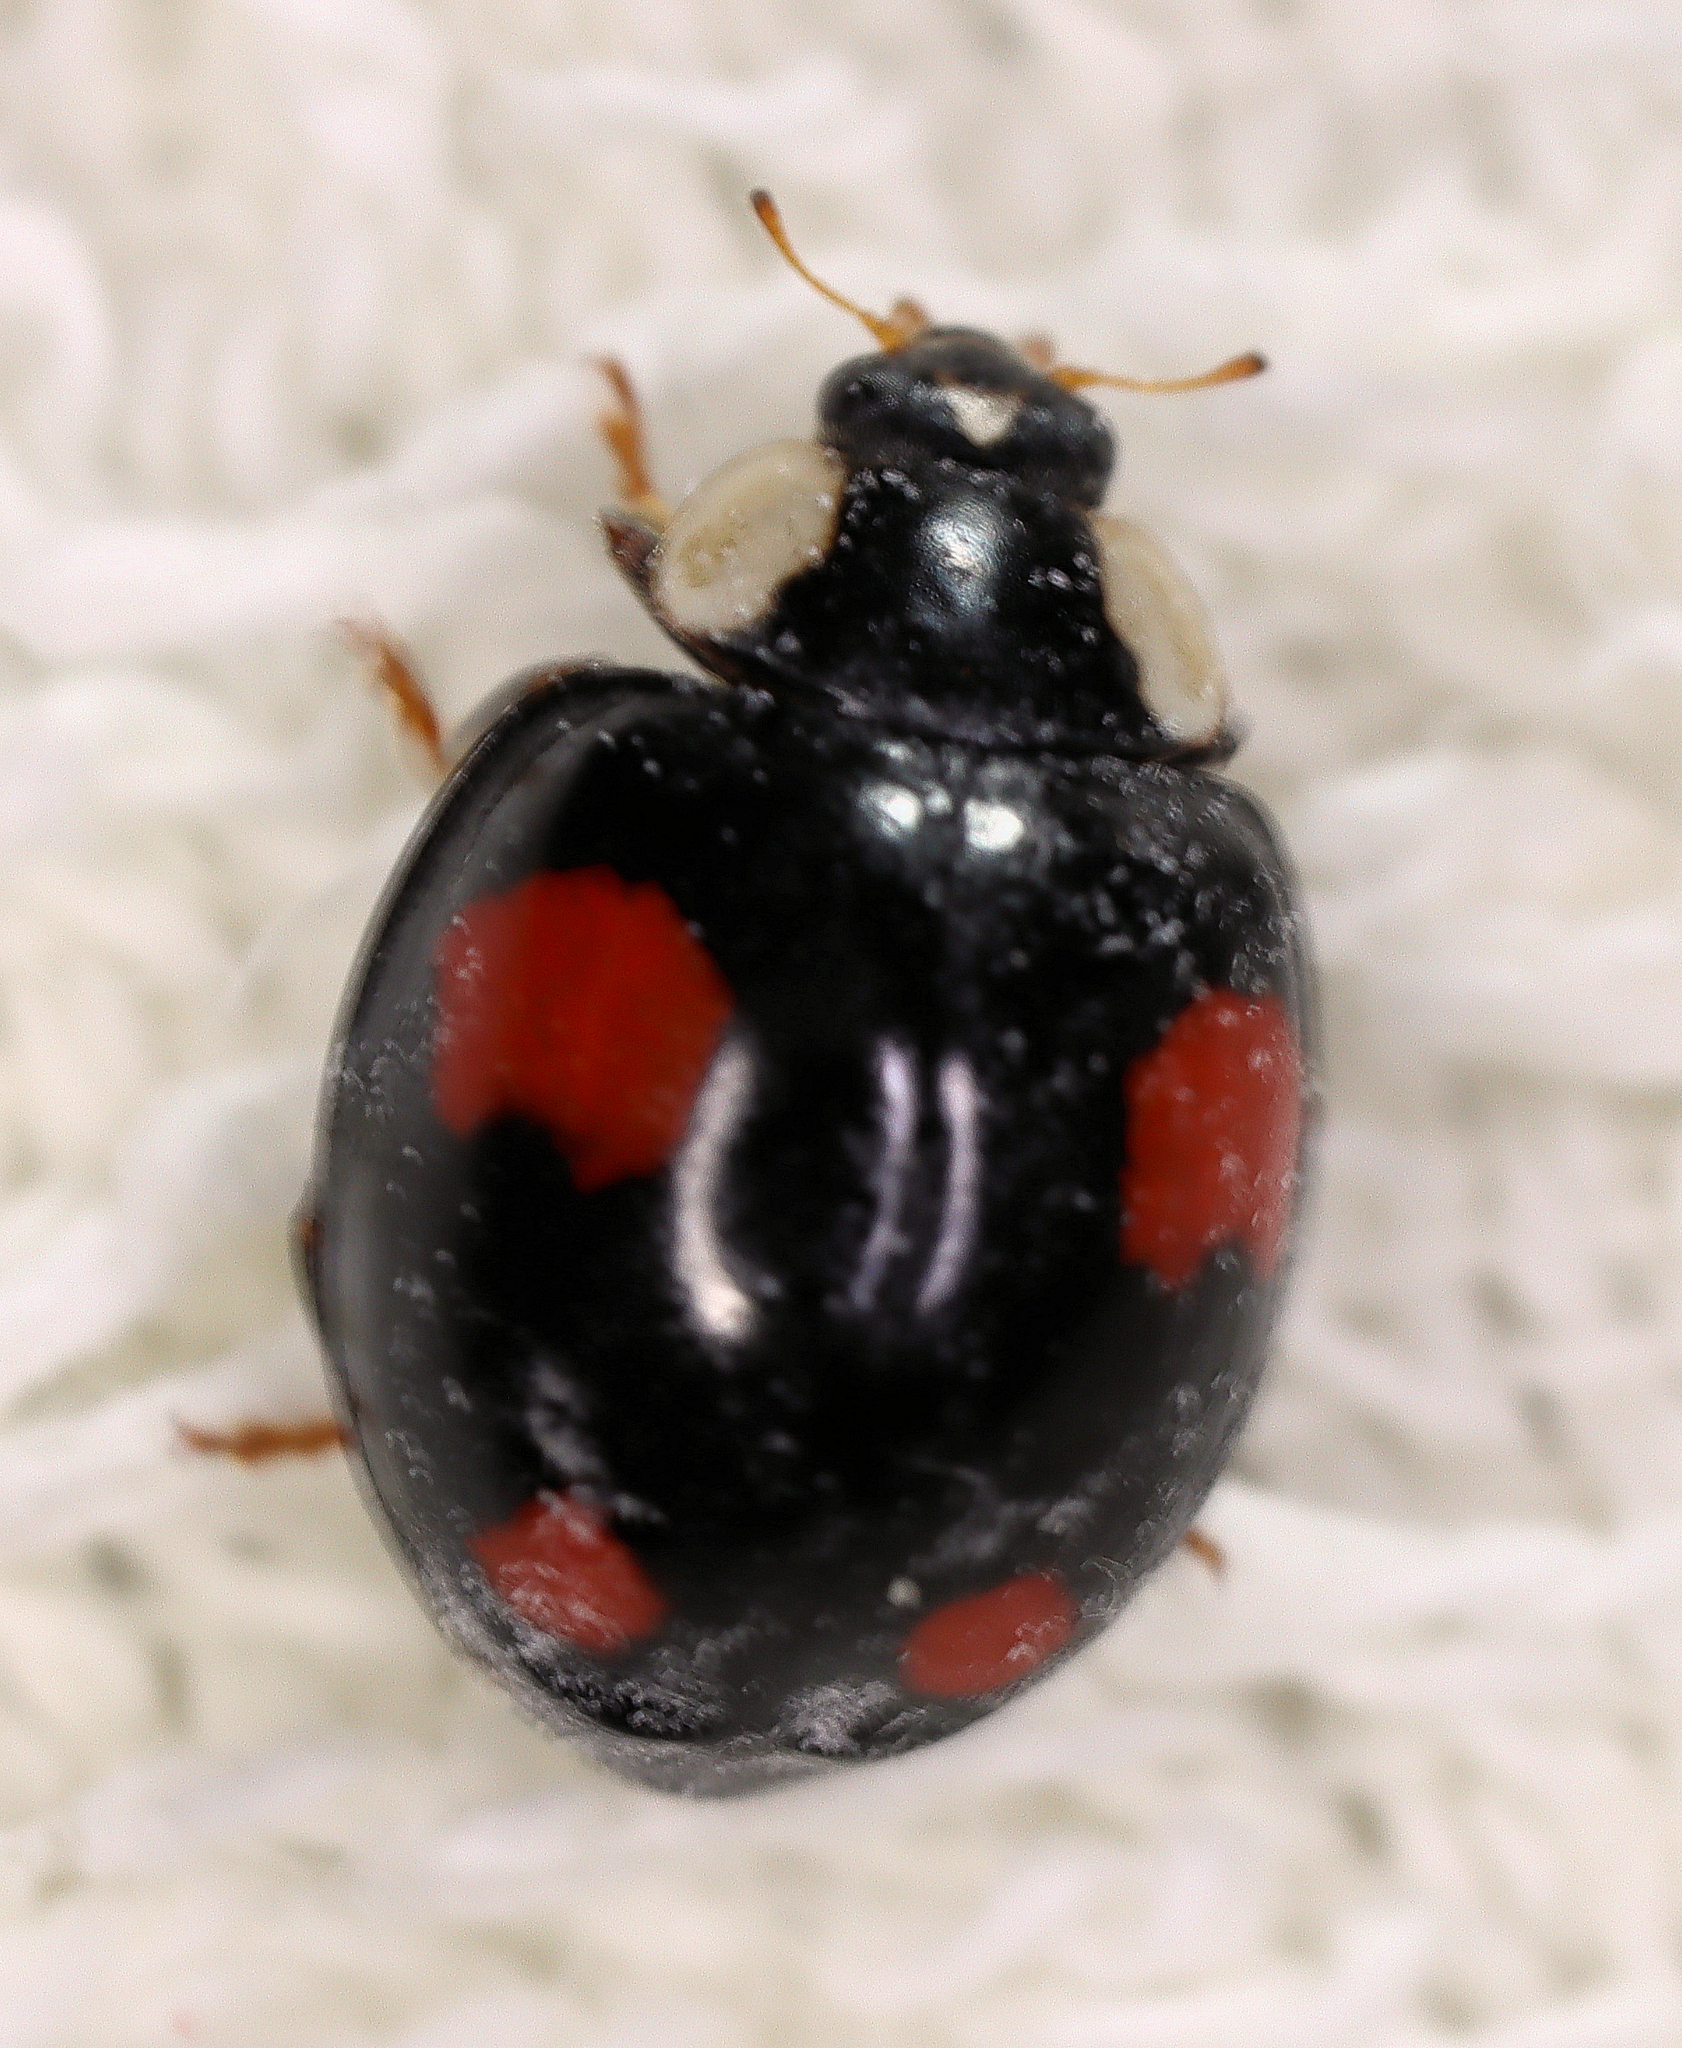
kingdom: Animalia
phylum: Arthropoda
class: Insecta
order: Coleoptera
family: Coccinellidae
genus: Harmonia
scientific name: Harmonia axyridis
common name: Harlequin ladybird
